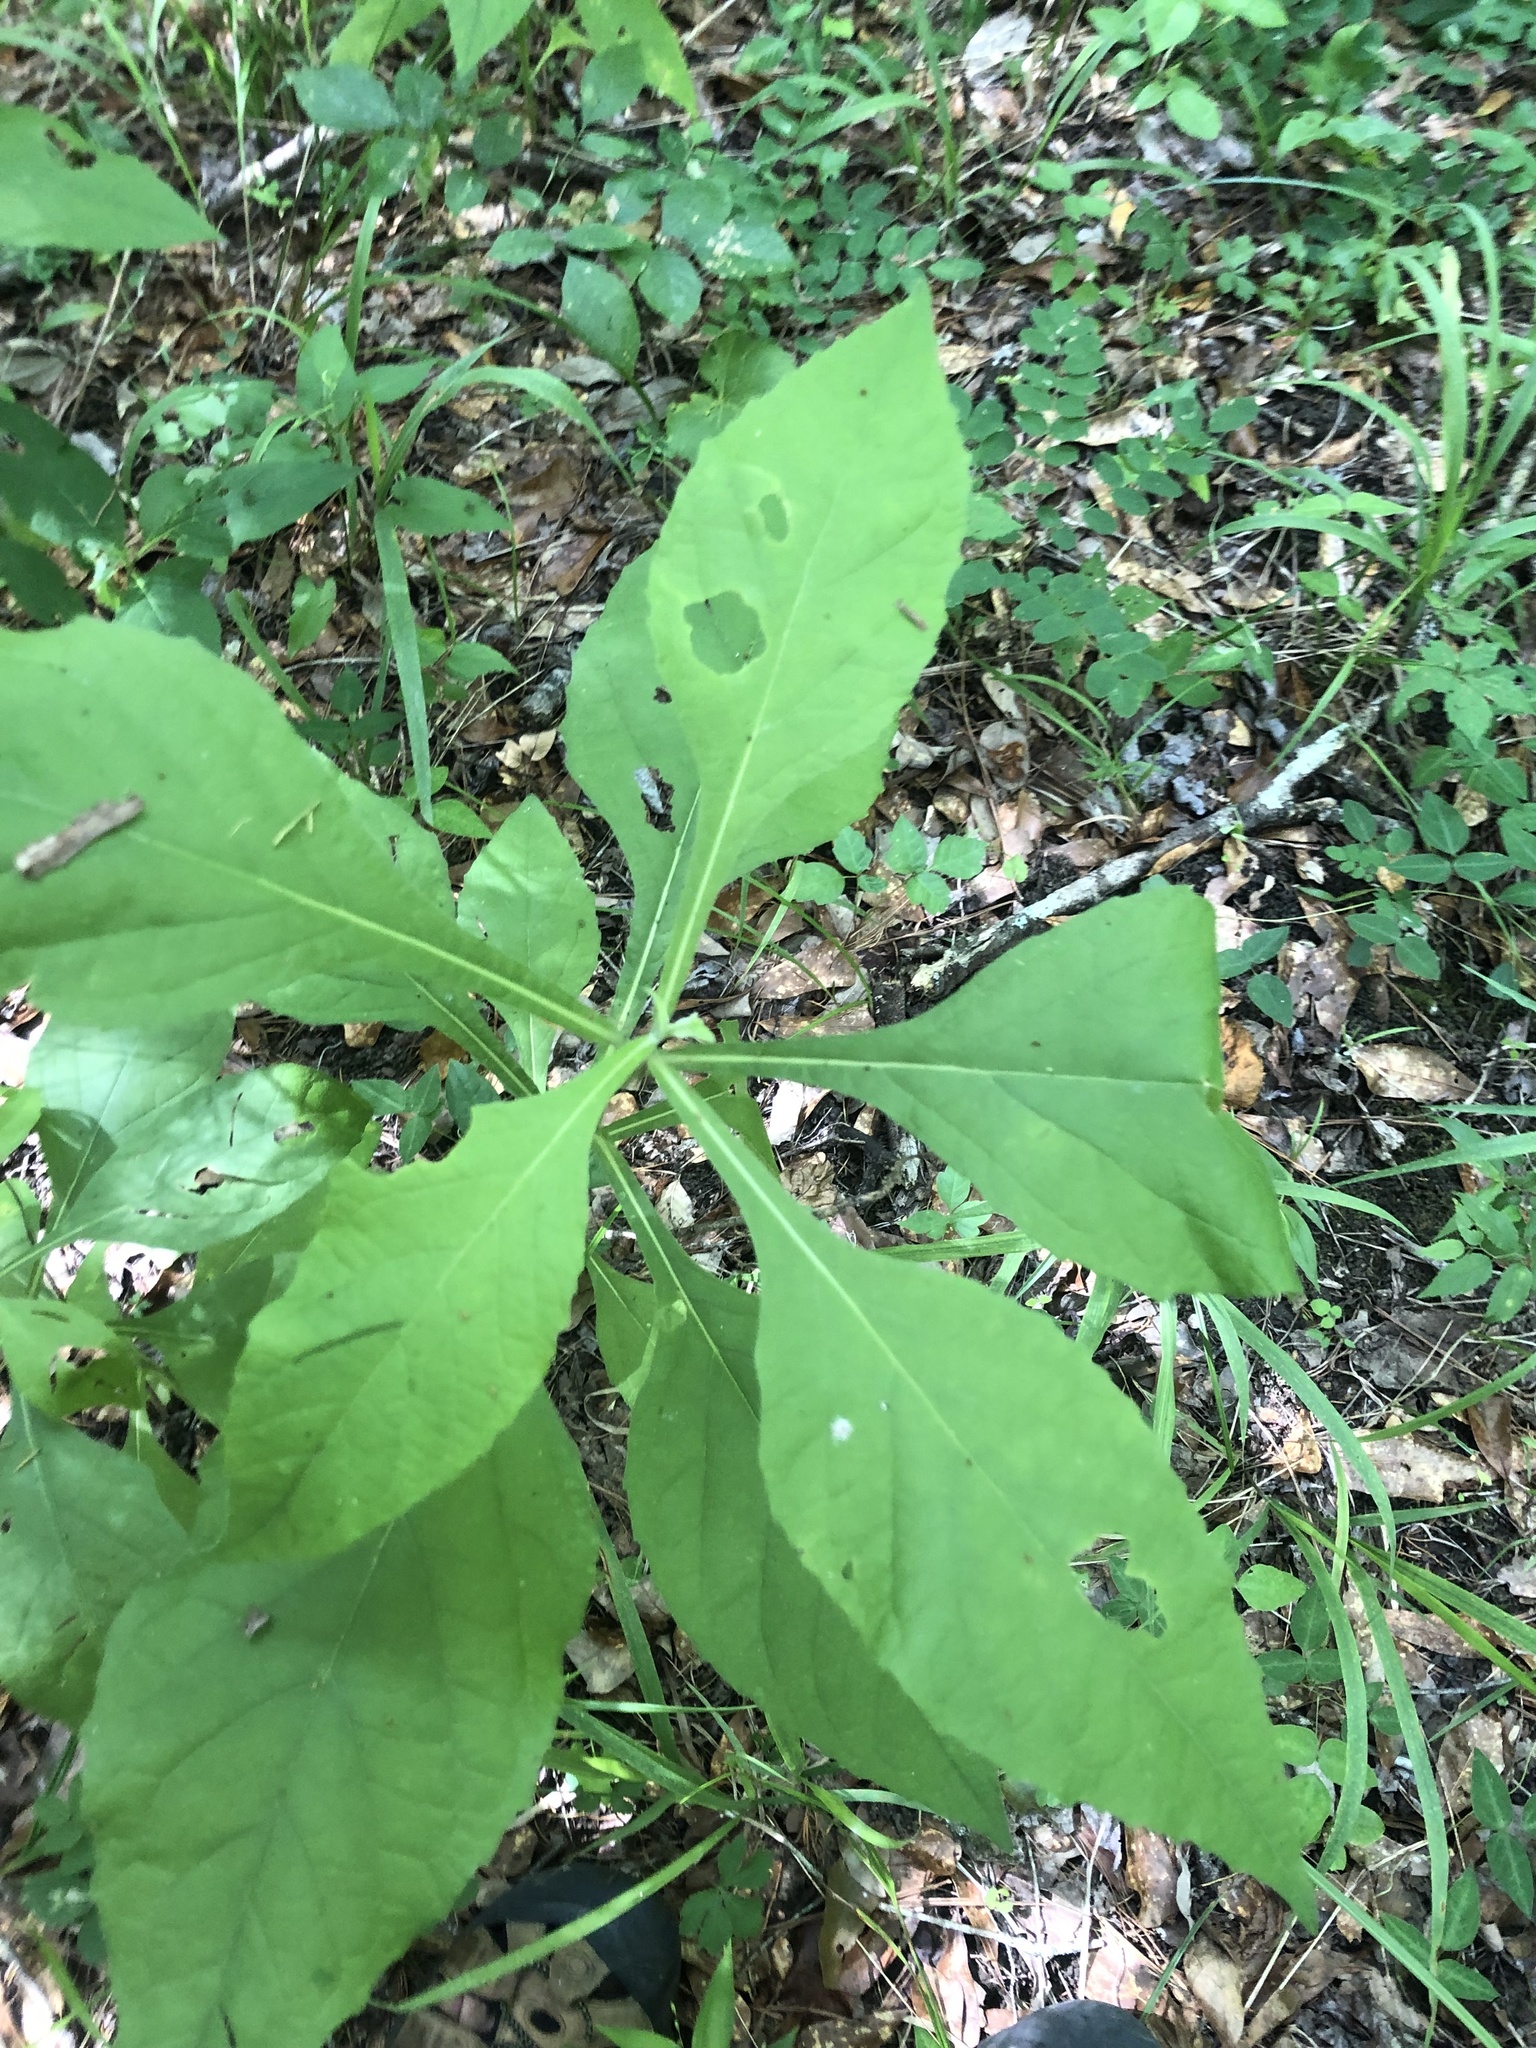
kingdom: Plantae
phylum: Tracheophyta
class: Magnoliopsida
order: Asterales
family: Asteraceae
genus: Verbesina
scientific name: Verbesina virginica
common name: Frostweed
